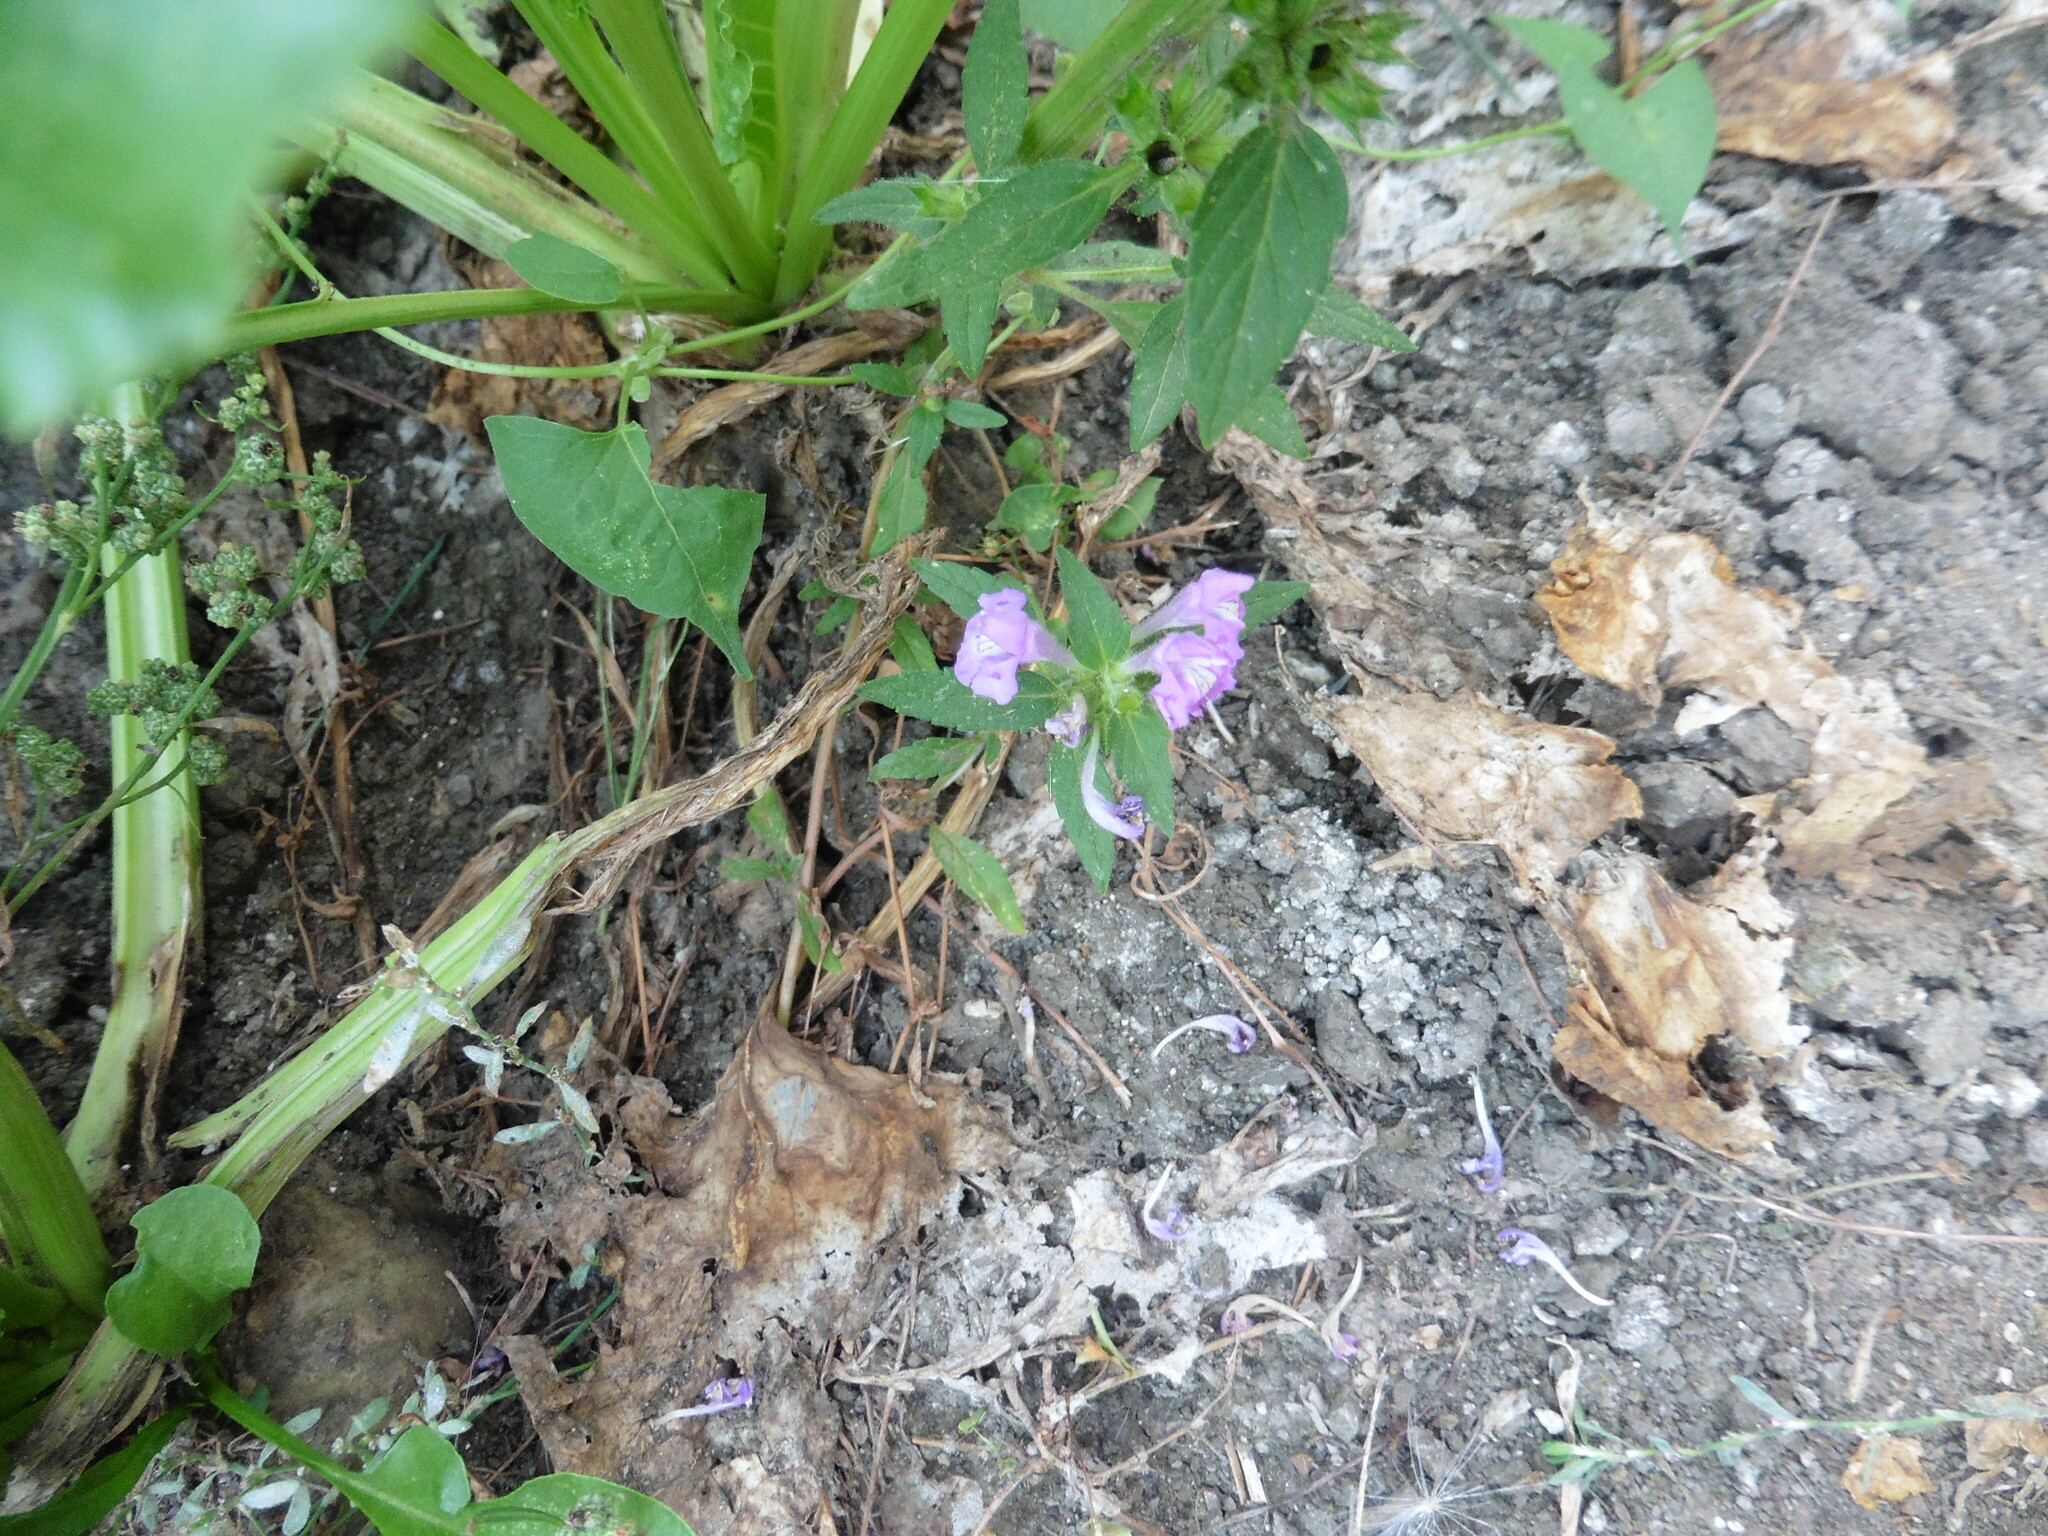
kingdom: Plantae
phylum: Tracheophyta
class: Magnoliopsida
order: Lamiales
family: Lamiaceae
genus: Galeopsis
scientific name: Galeopsis ladanum
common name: Broad-leaved hemp-nettle
